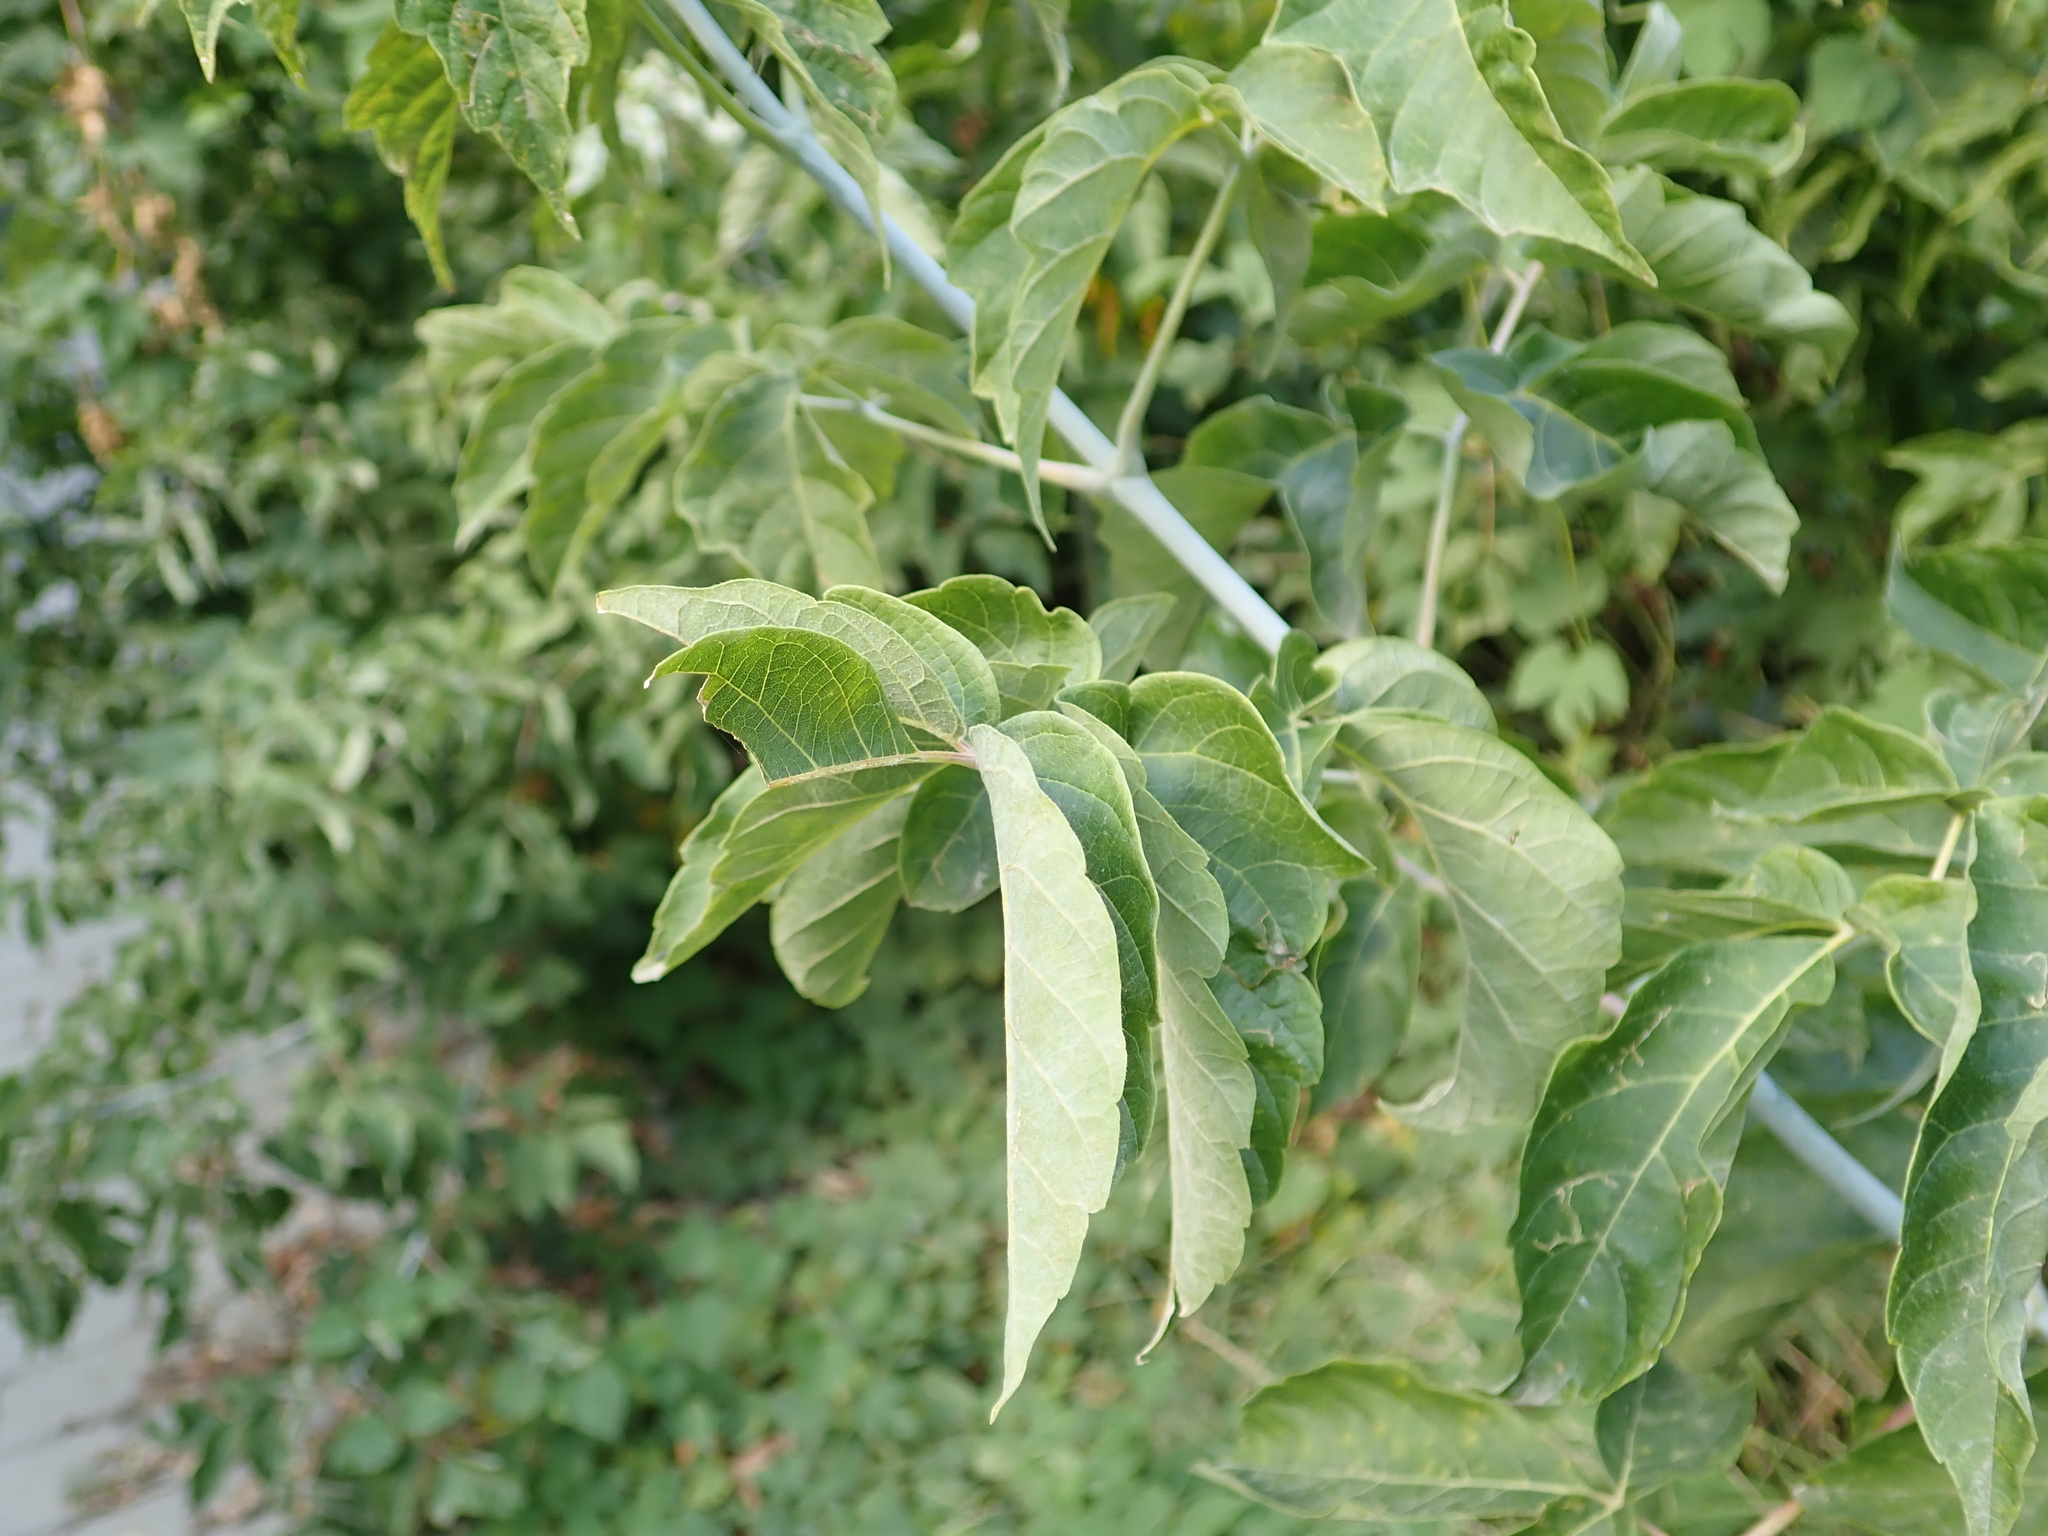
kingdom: Plantae
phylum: Tracheophyta
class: Magnoliopsida
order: Sapindales
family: Sapindaceae
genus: Acer
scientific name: Acer negundo
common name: Ashleaf maple
